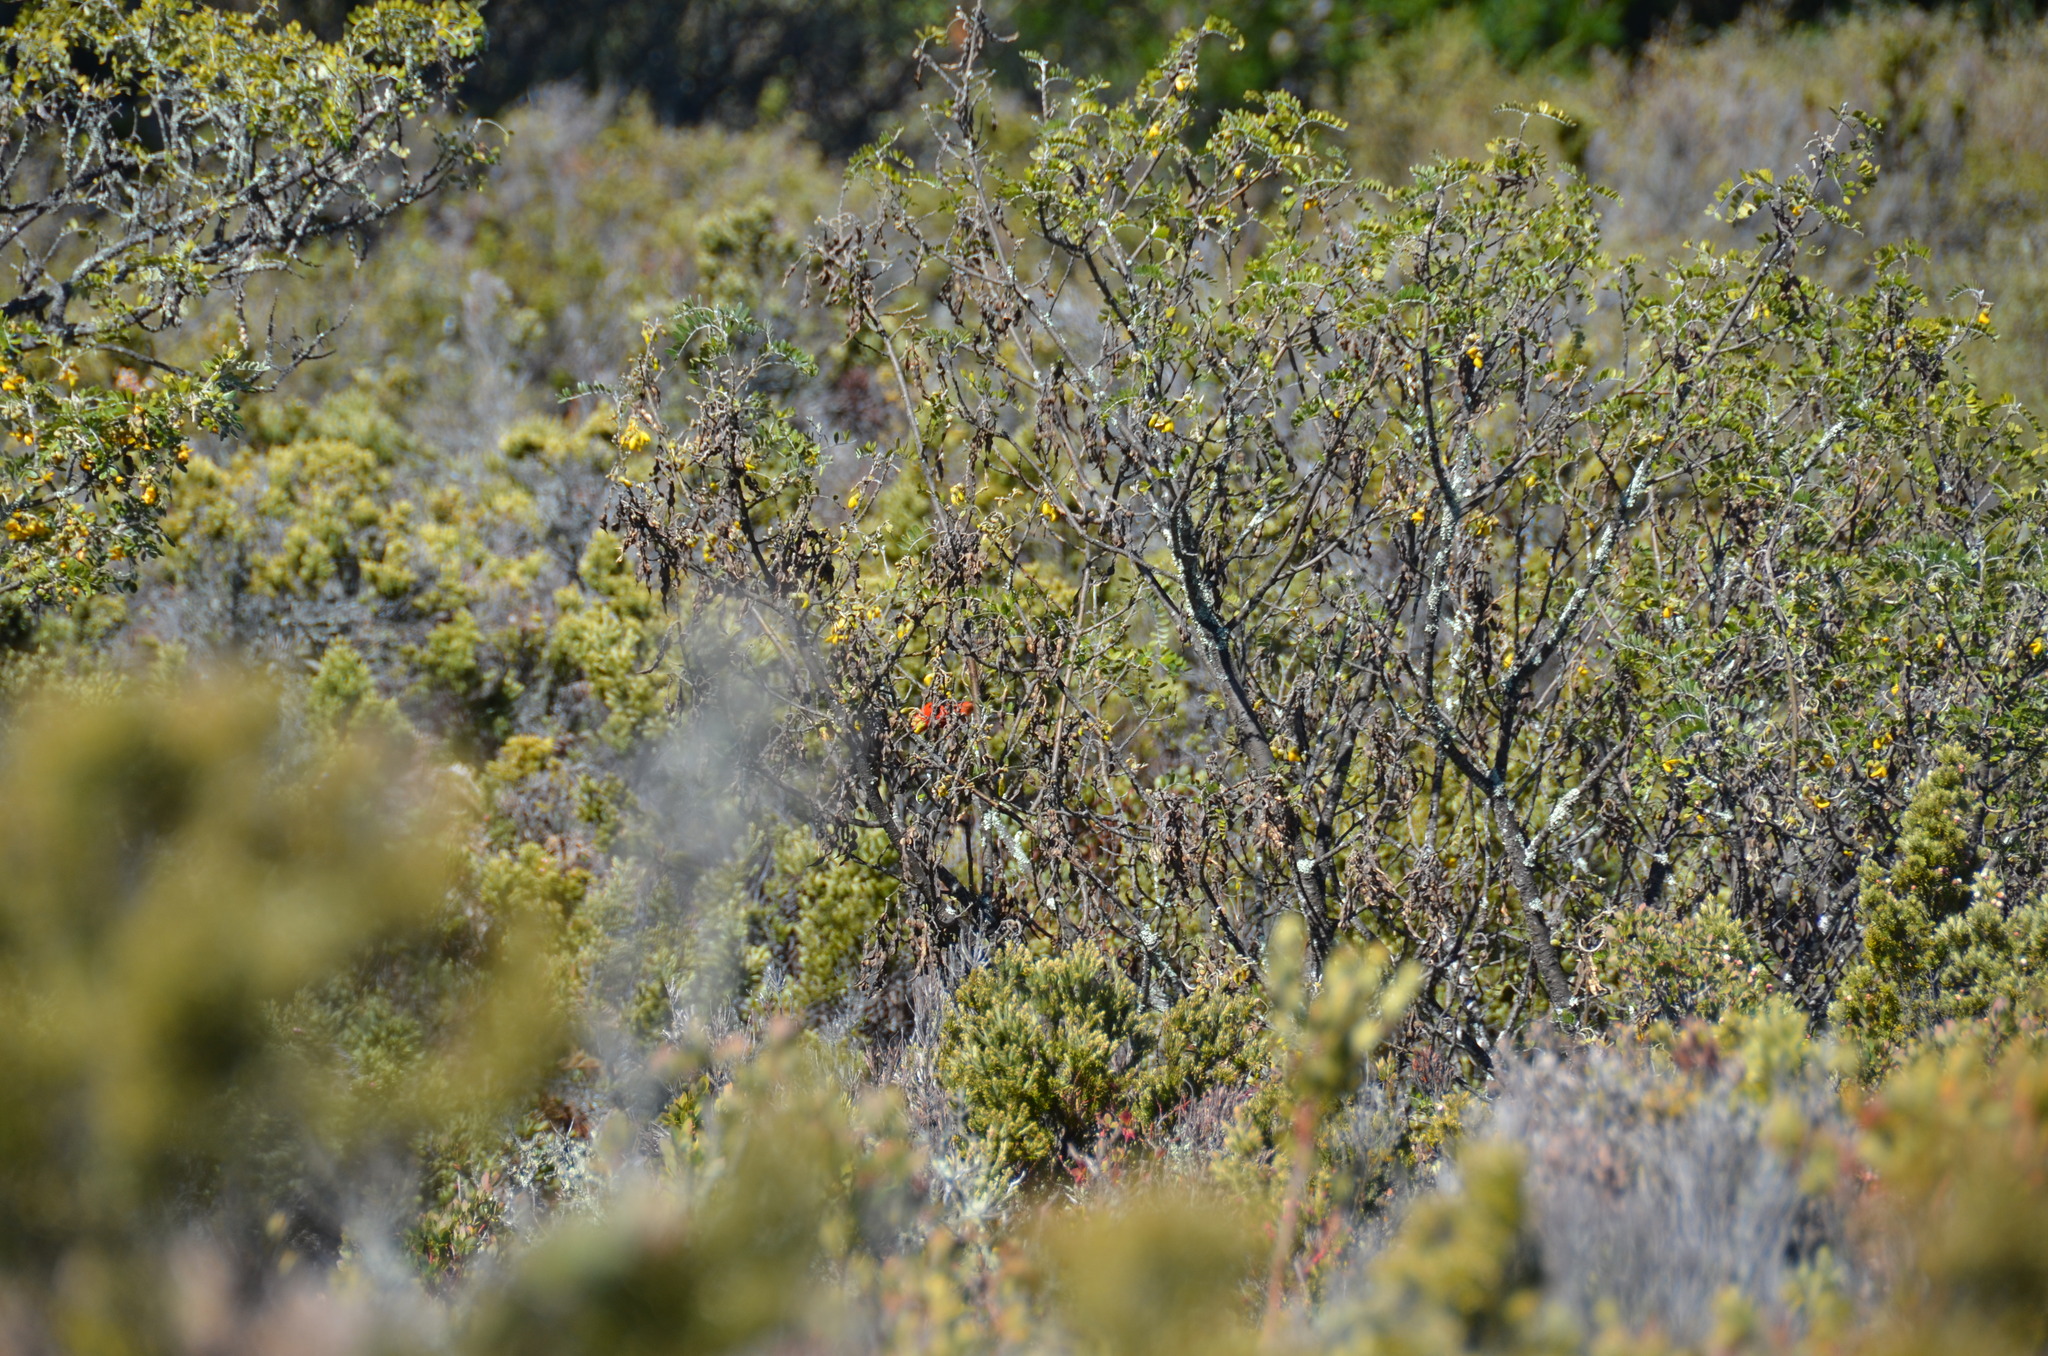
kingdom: Animalia
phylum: Chordata
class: Aves
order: Passeriformes
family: Fringillidae
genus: Vestiaria
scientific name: Vestiaria coccinea
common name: Iiwi
